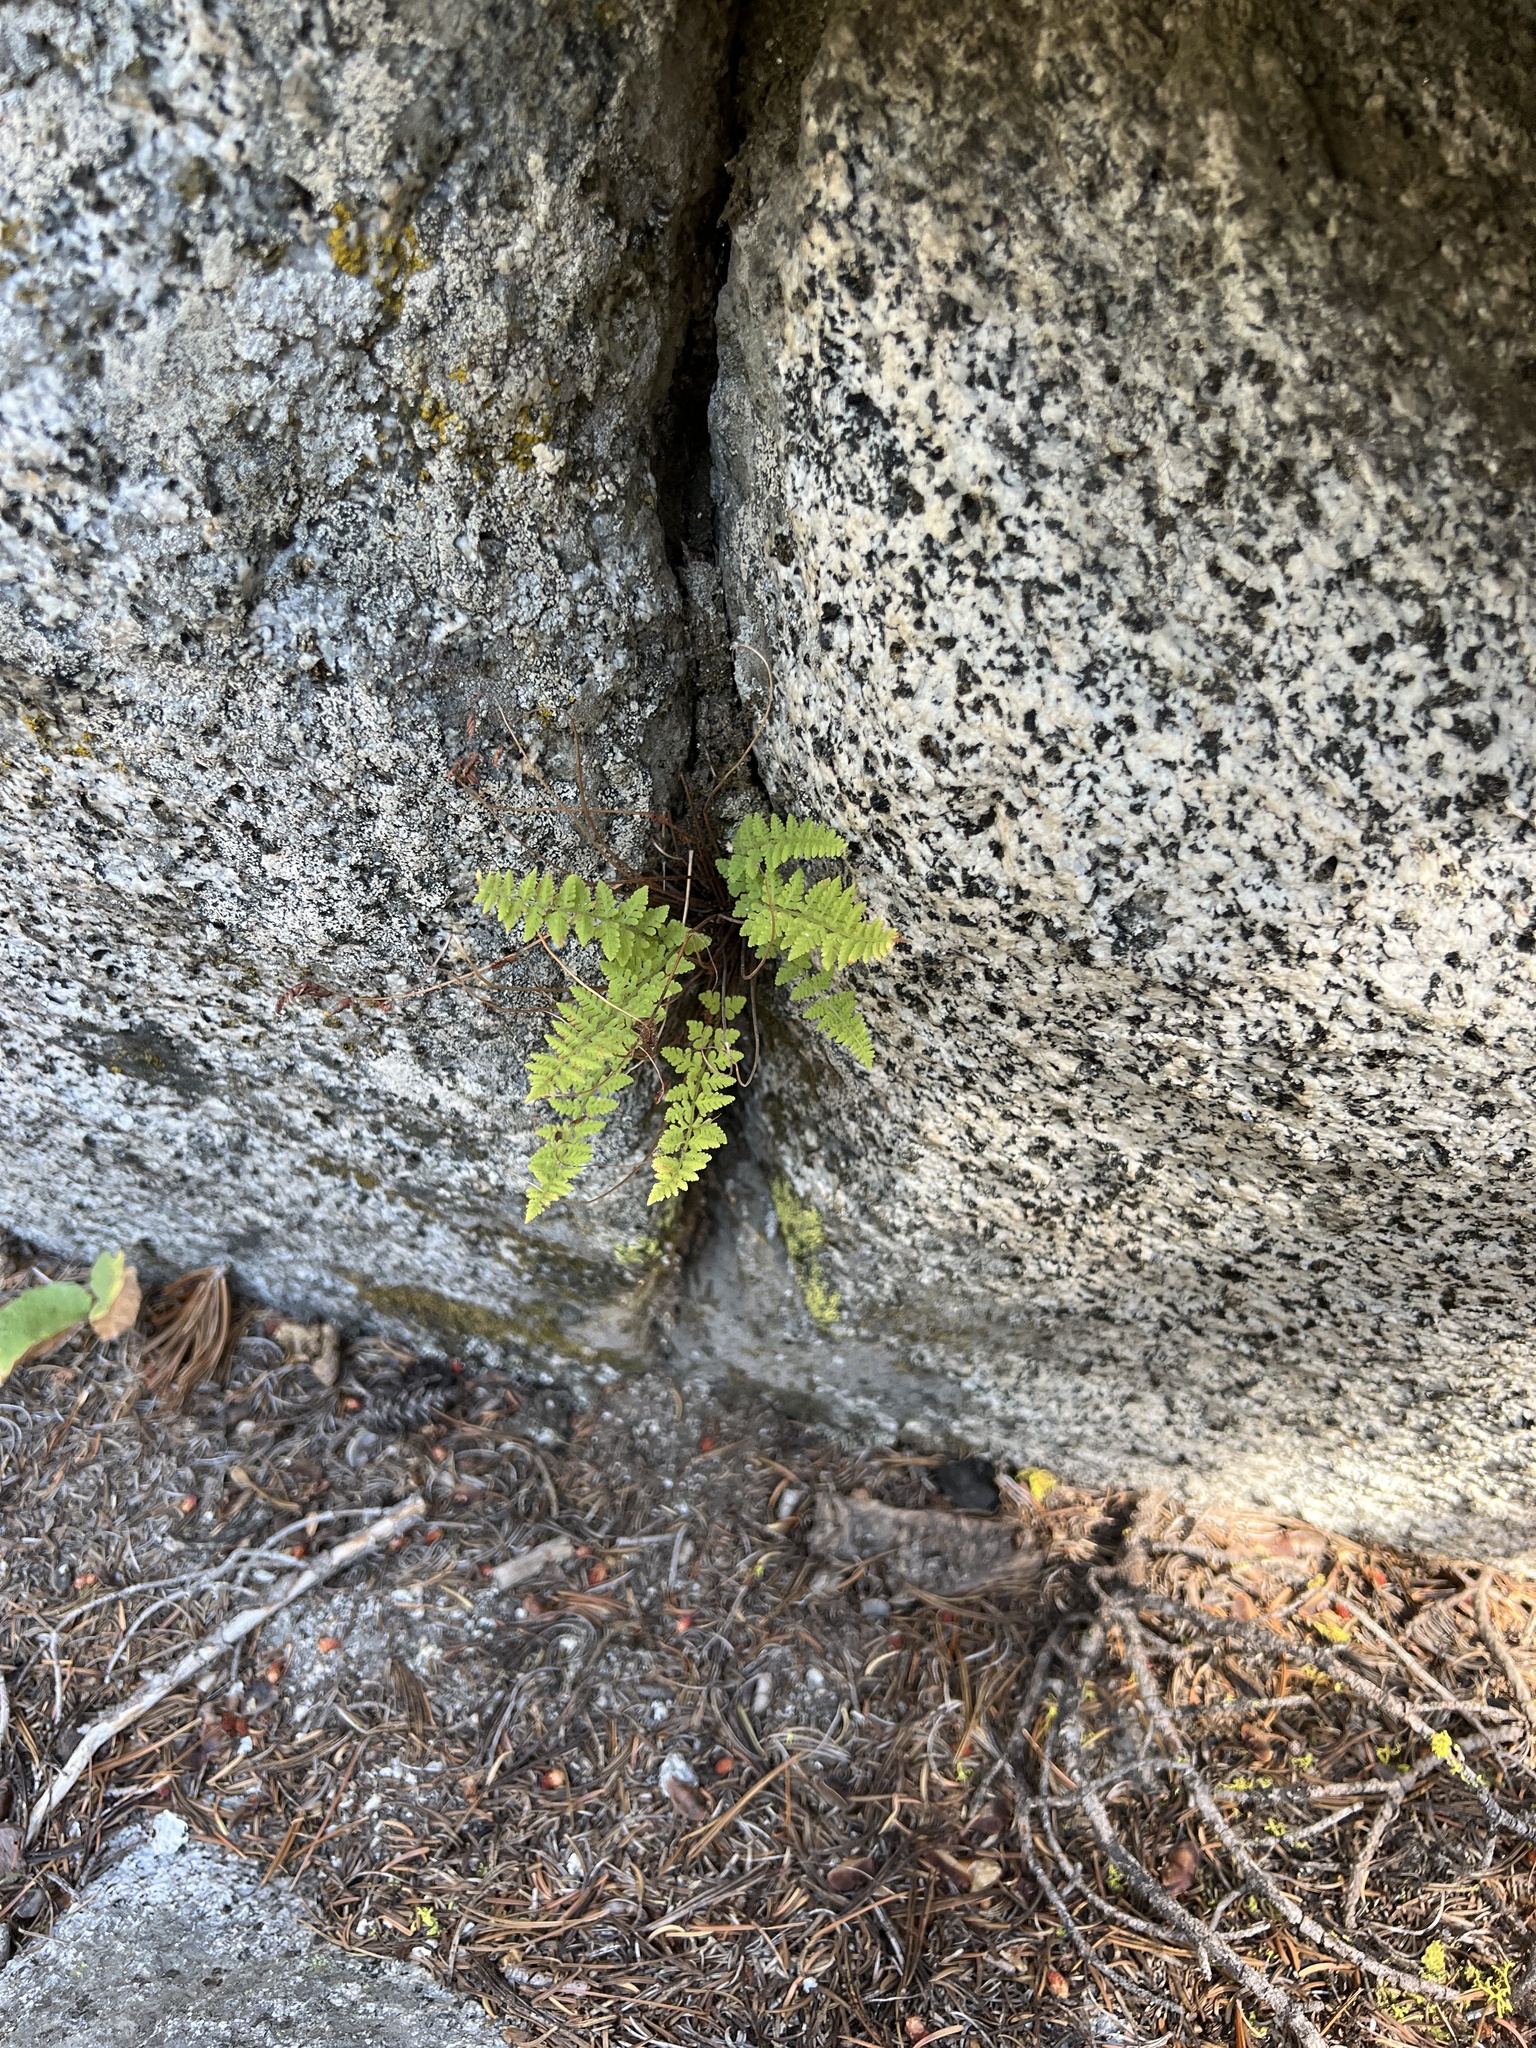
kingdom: Plantae
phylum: Tracheophyta
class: Polypodiopsida
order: Polypodiales
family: Woodsiaceae
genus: Physematium
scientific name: Physematium scopulinum
